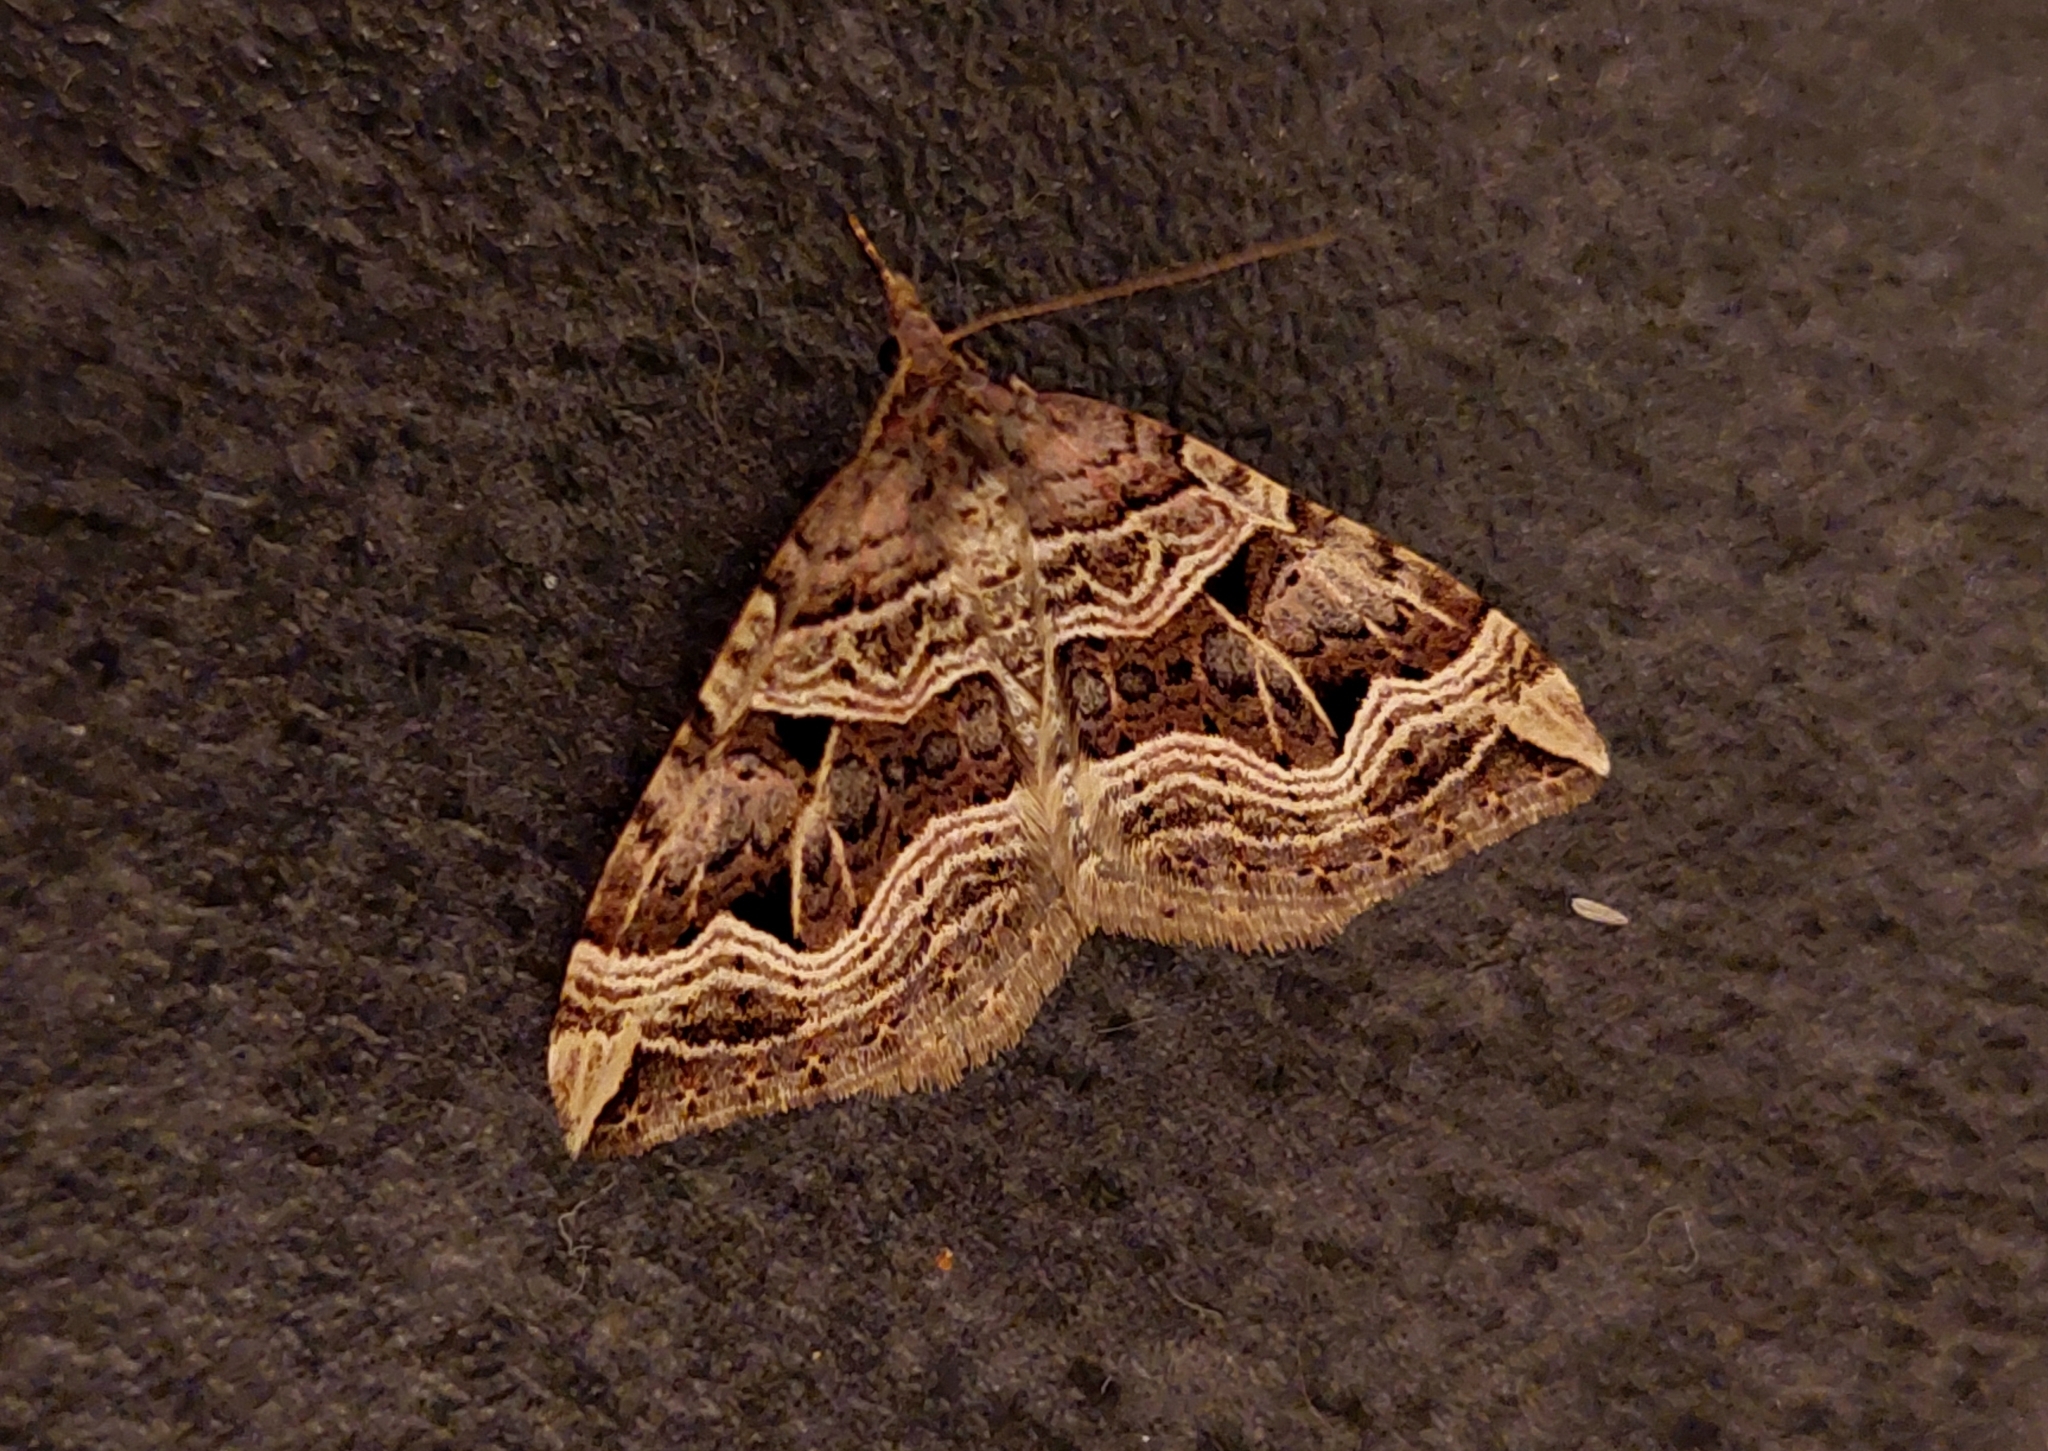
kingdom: Animalia
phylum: Arthropoda
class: Insecta
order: Lepidoptera
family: Geometridae
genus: Xanthorhoe
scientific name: Xanthorhoe semifissata
